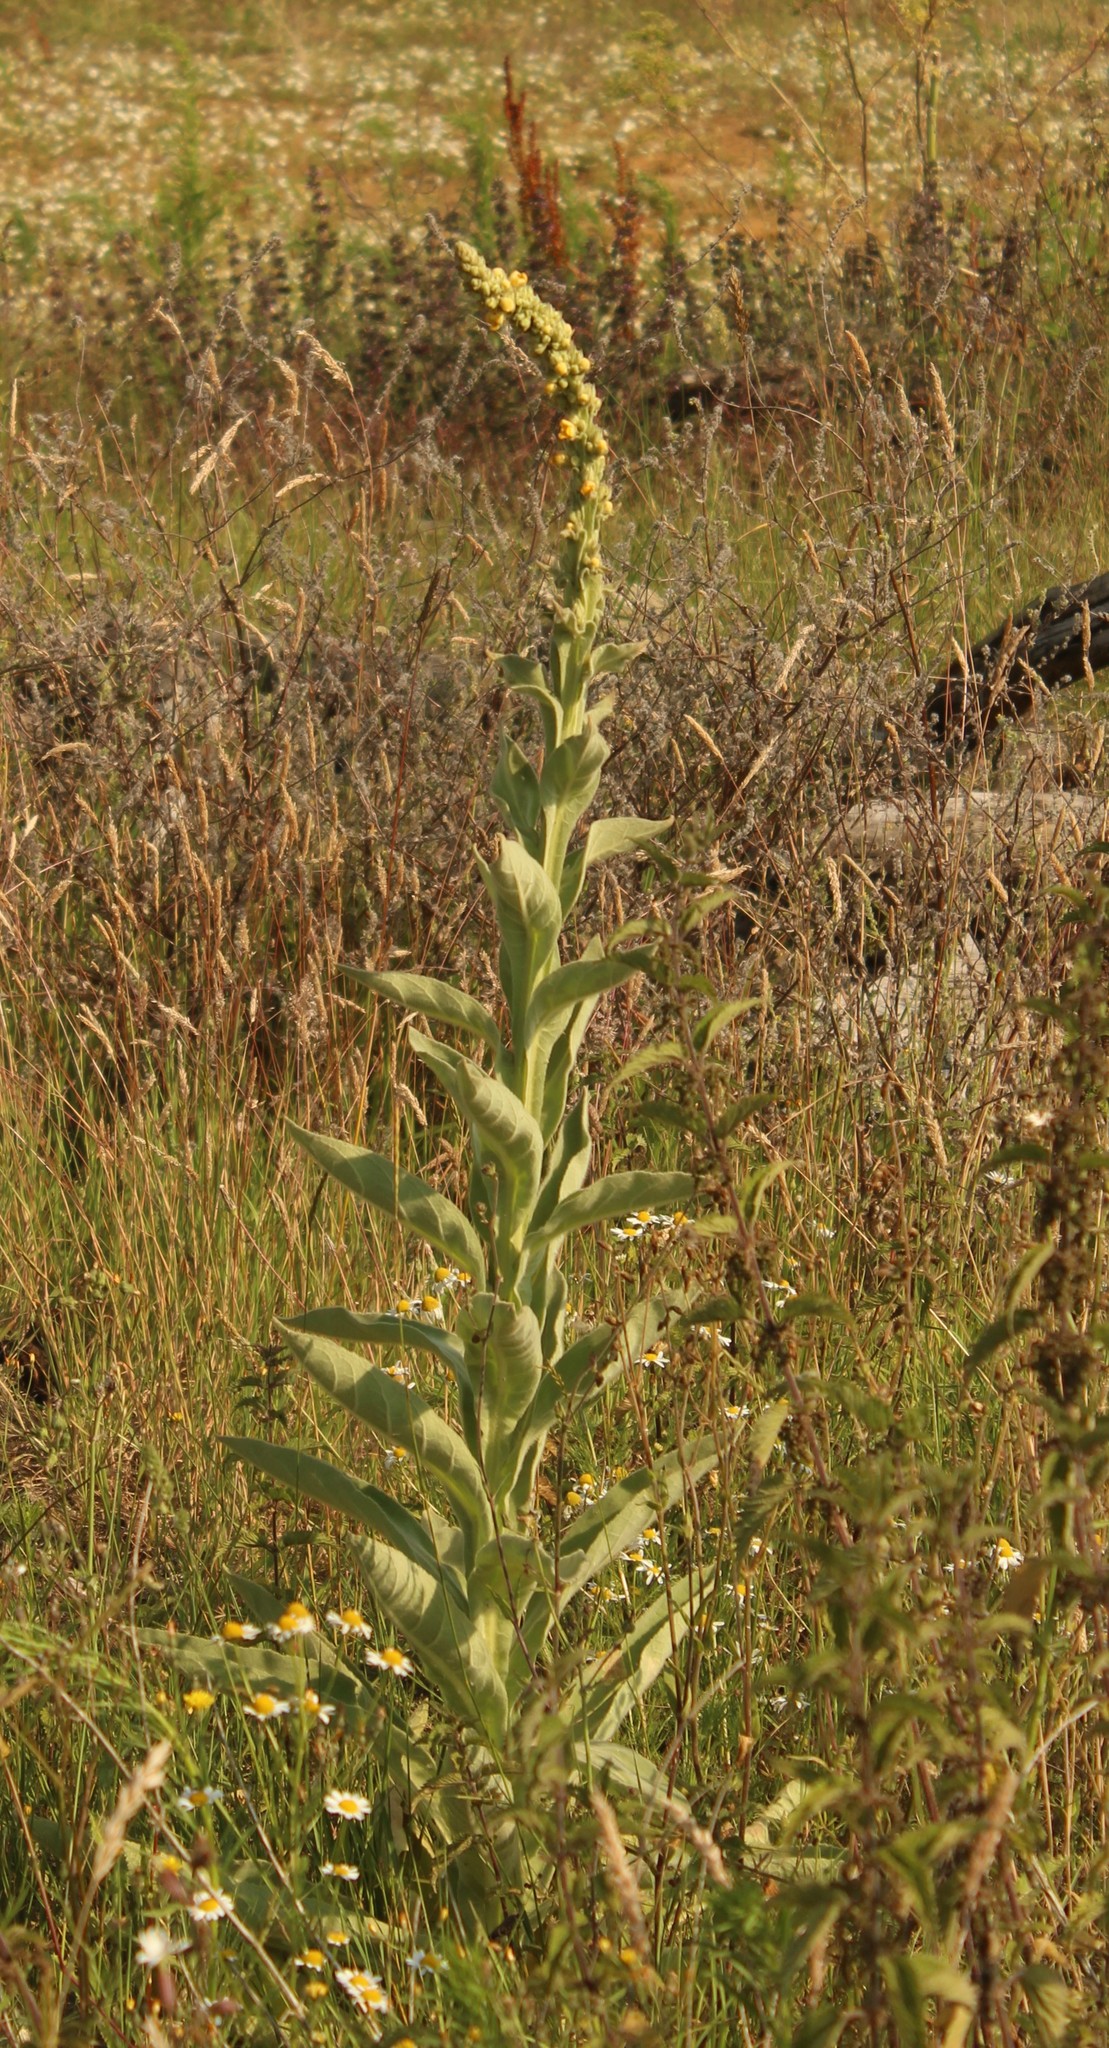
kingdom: Plantae
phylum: Tracheophyta
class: Magnoliopsida
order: Lamiales
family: Scrophulariaceae
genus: Verbascum
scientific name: Verbascum thapsus
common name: Common mullein
